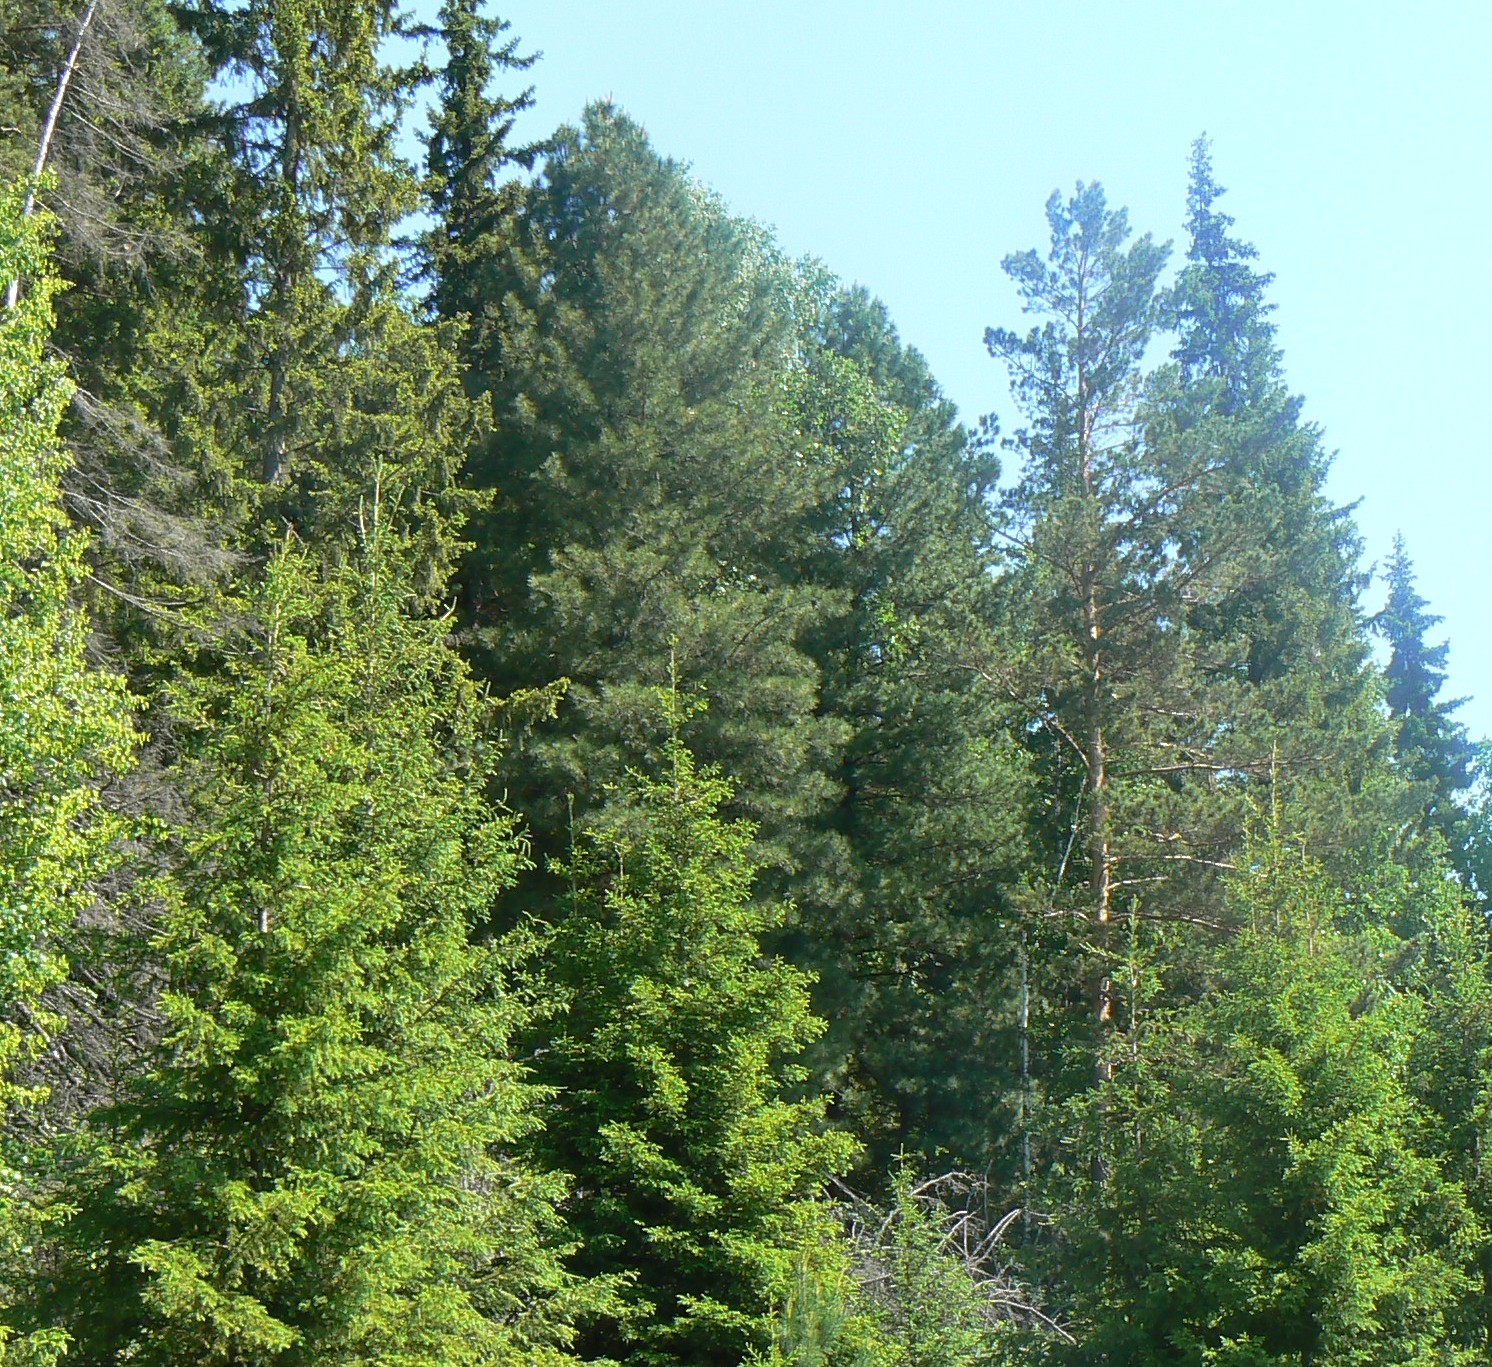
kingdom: Plantae
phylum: Tracheophyta
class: Pinopsida
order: Pinales
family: Pinaceae
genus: Pinus
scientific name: Pinus sibirica
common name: Siberian pine
